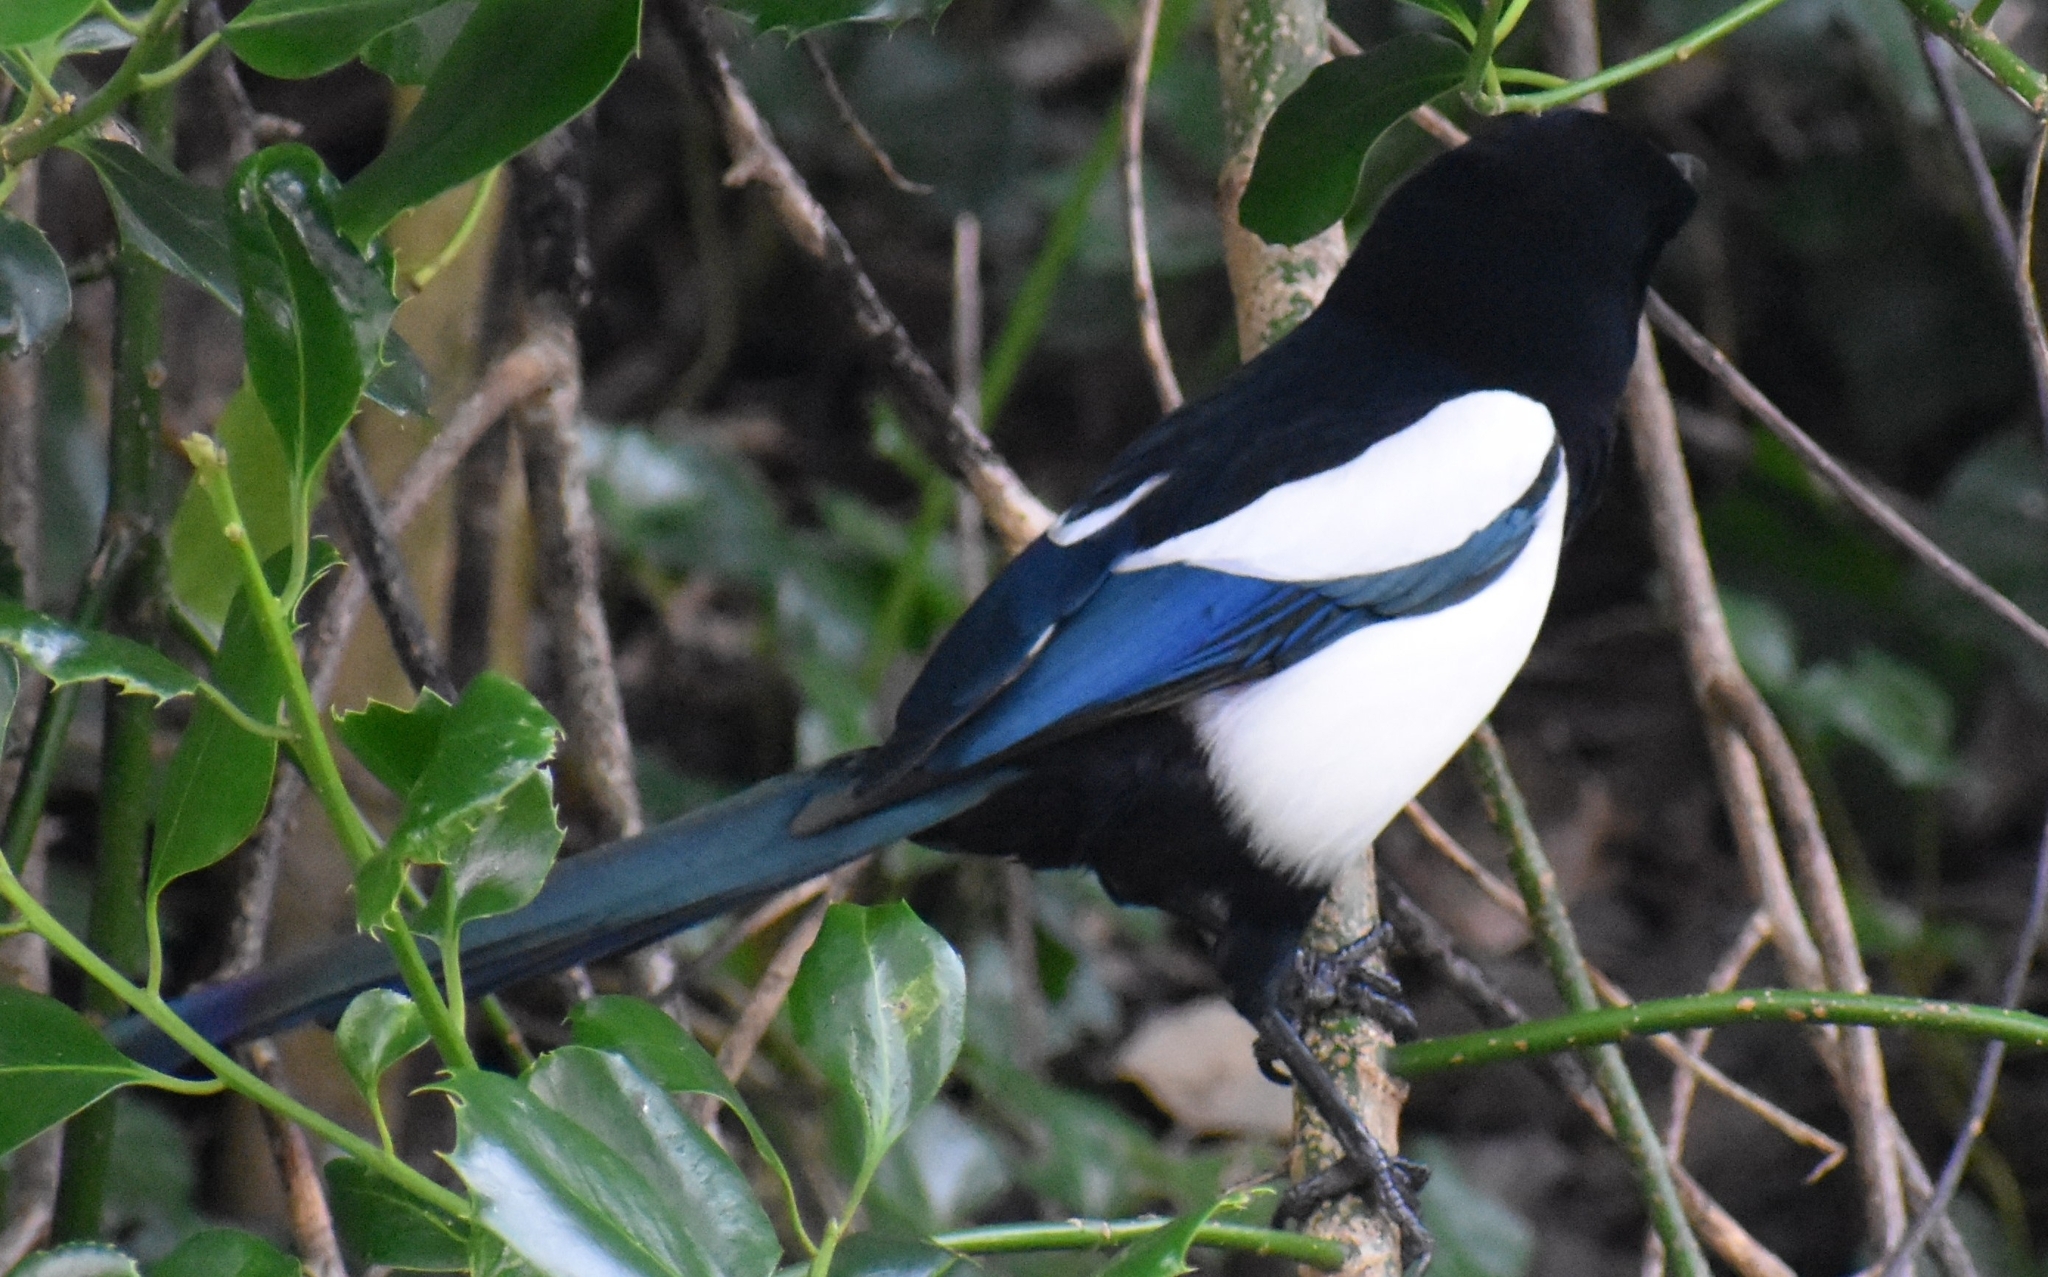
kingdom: Animalia
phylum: Chordata
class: Aves
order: Passeriformes
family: Corvidae
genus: Pica
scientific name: Pica pica
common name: Eurasian magpie
